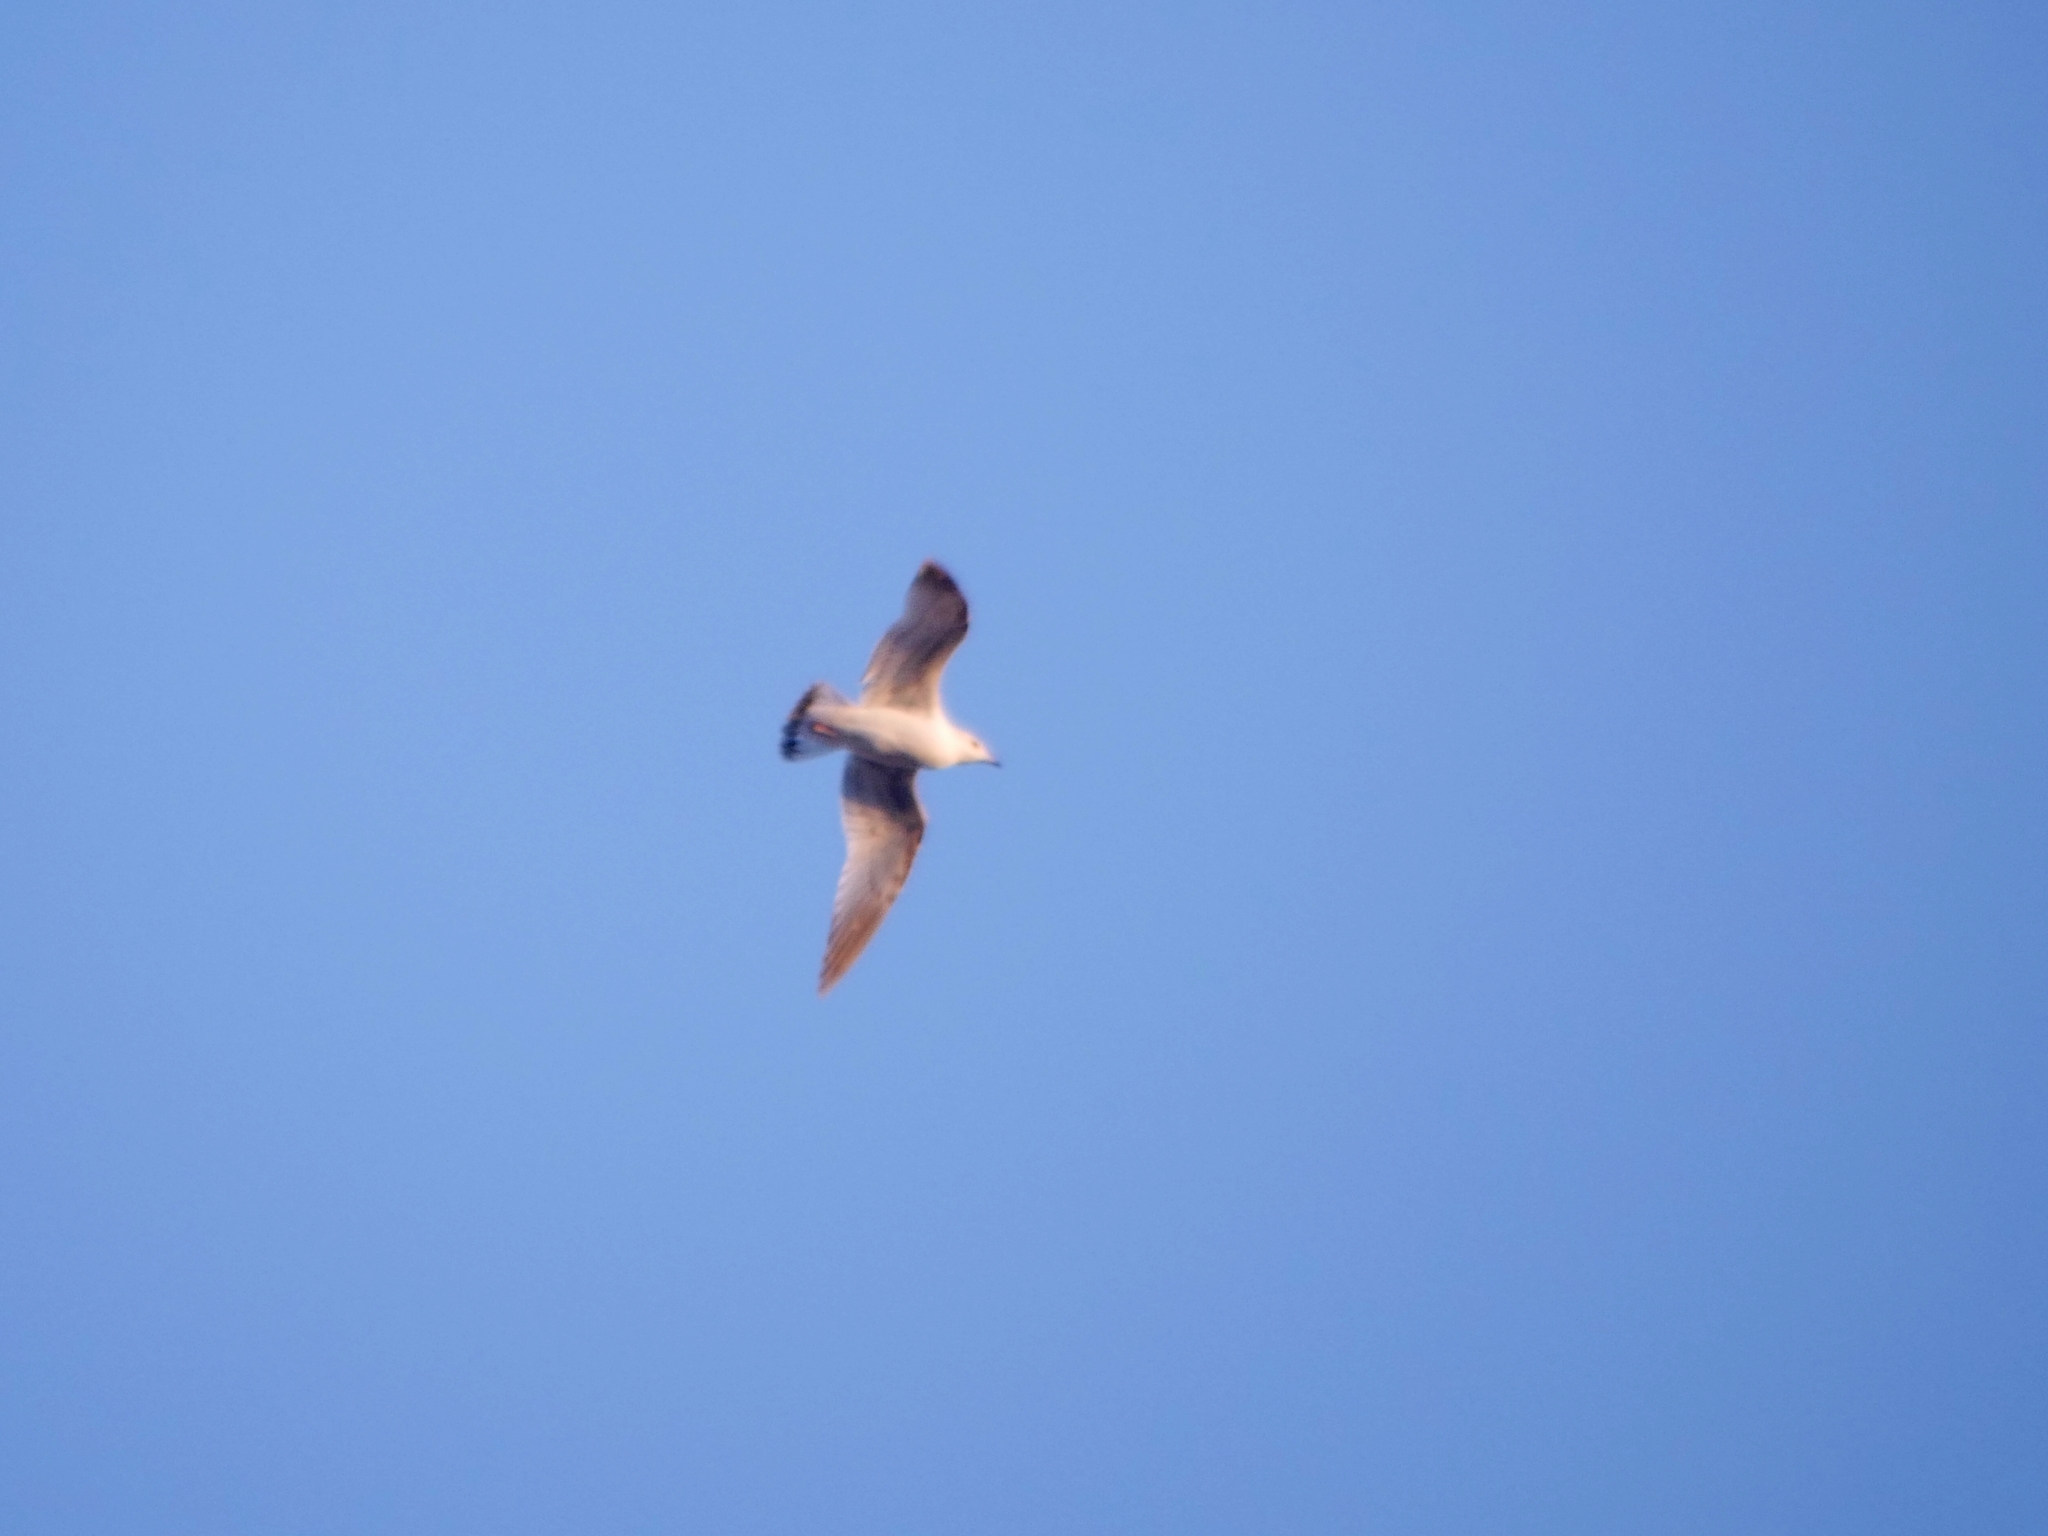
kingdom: Animalia
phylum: Chordata
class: Aves
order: Charadriiformes
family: Laridae
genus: Larus
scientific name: Larus canus
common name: Mew gull
